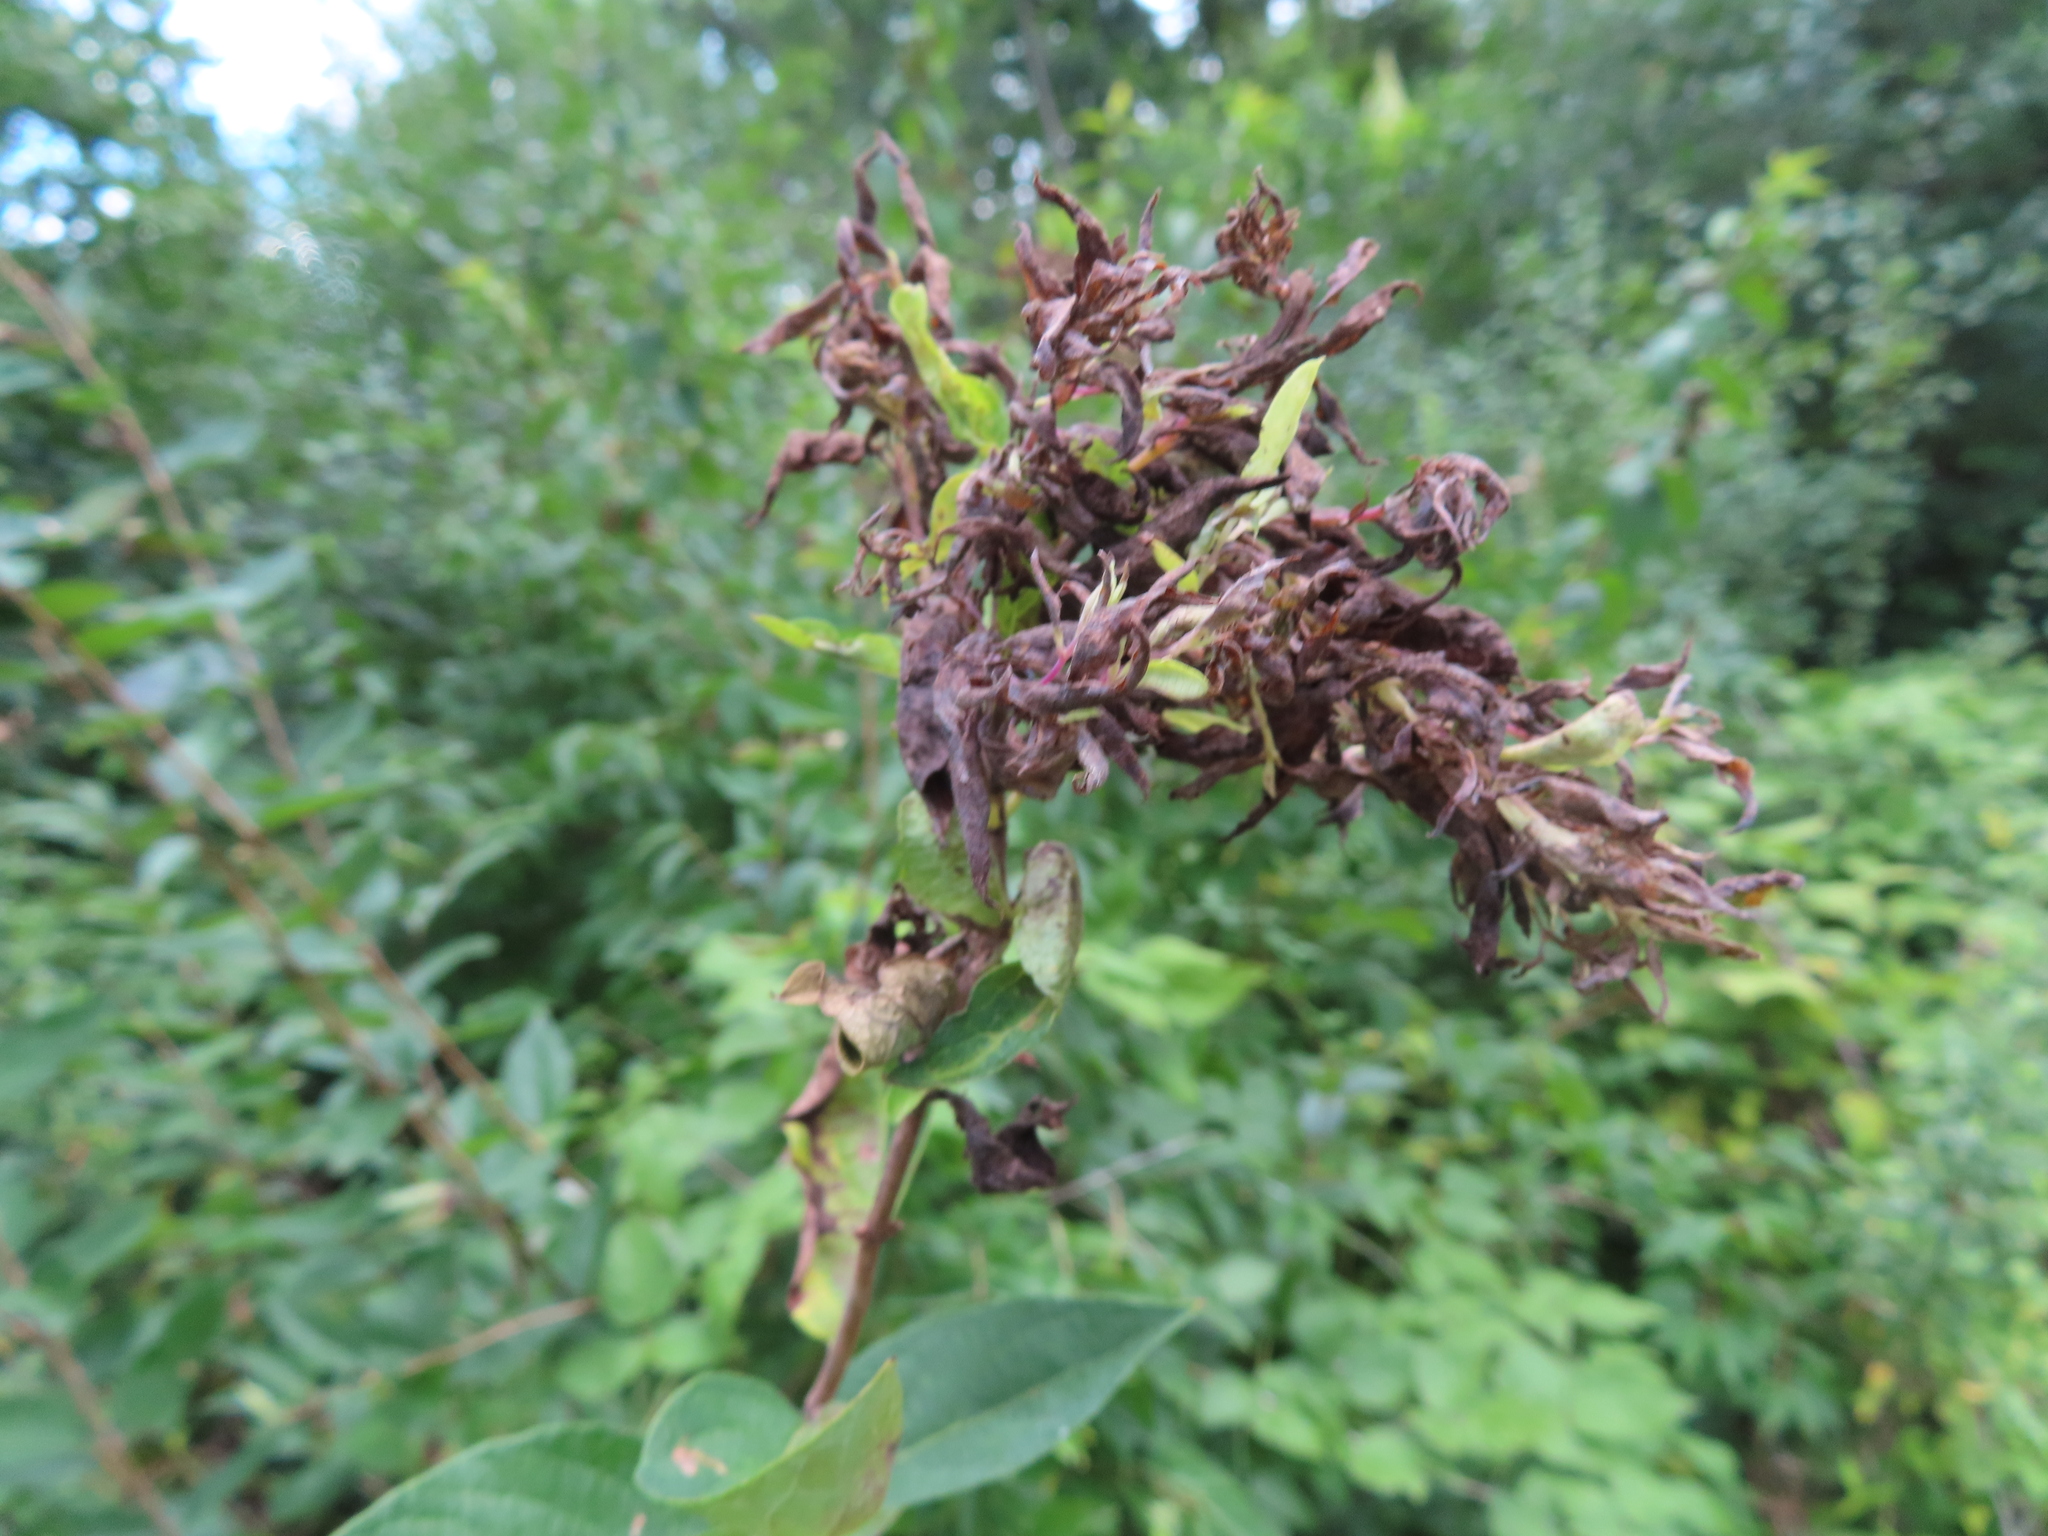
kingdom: Animalia
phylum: Arthropoda
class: Insecta
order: Hemiptera
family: Aphididae
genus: Hyadaphis
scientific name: Hyadaphis tataricae
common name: Honeysuckle witches' broom aphid
